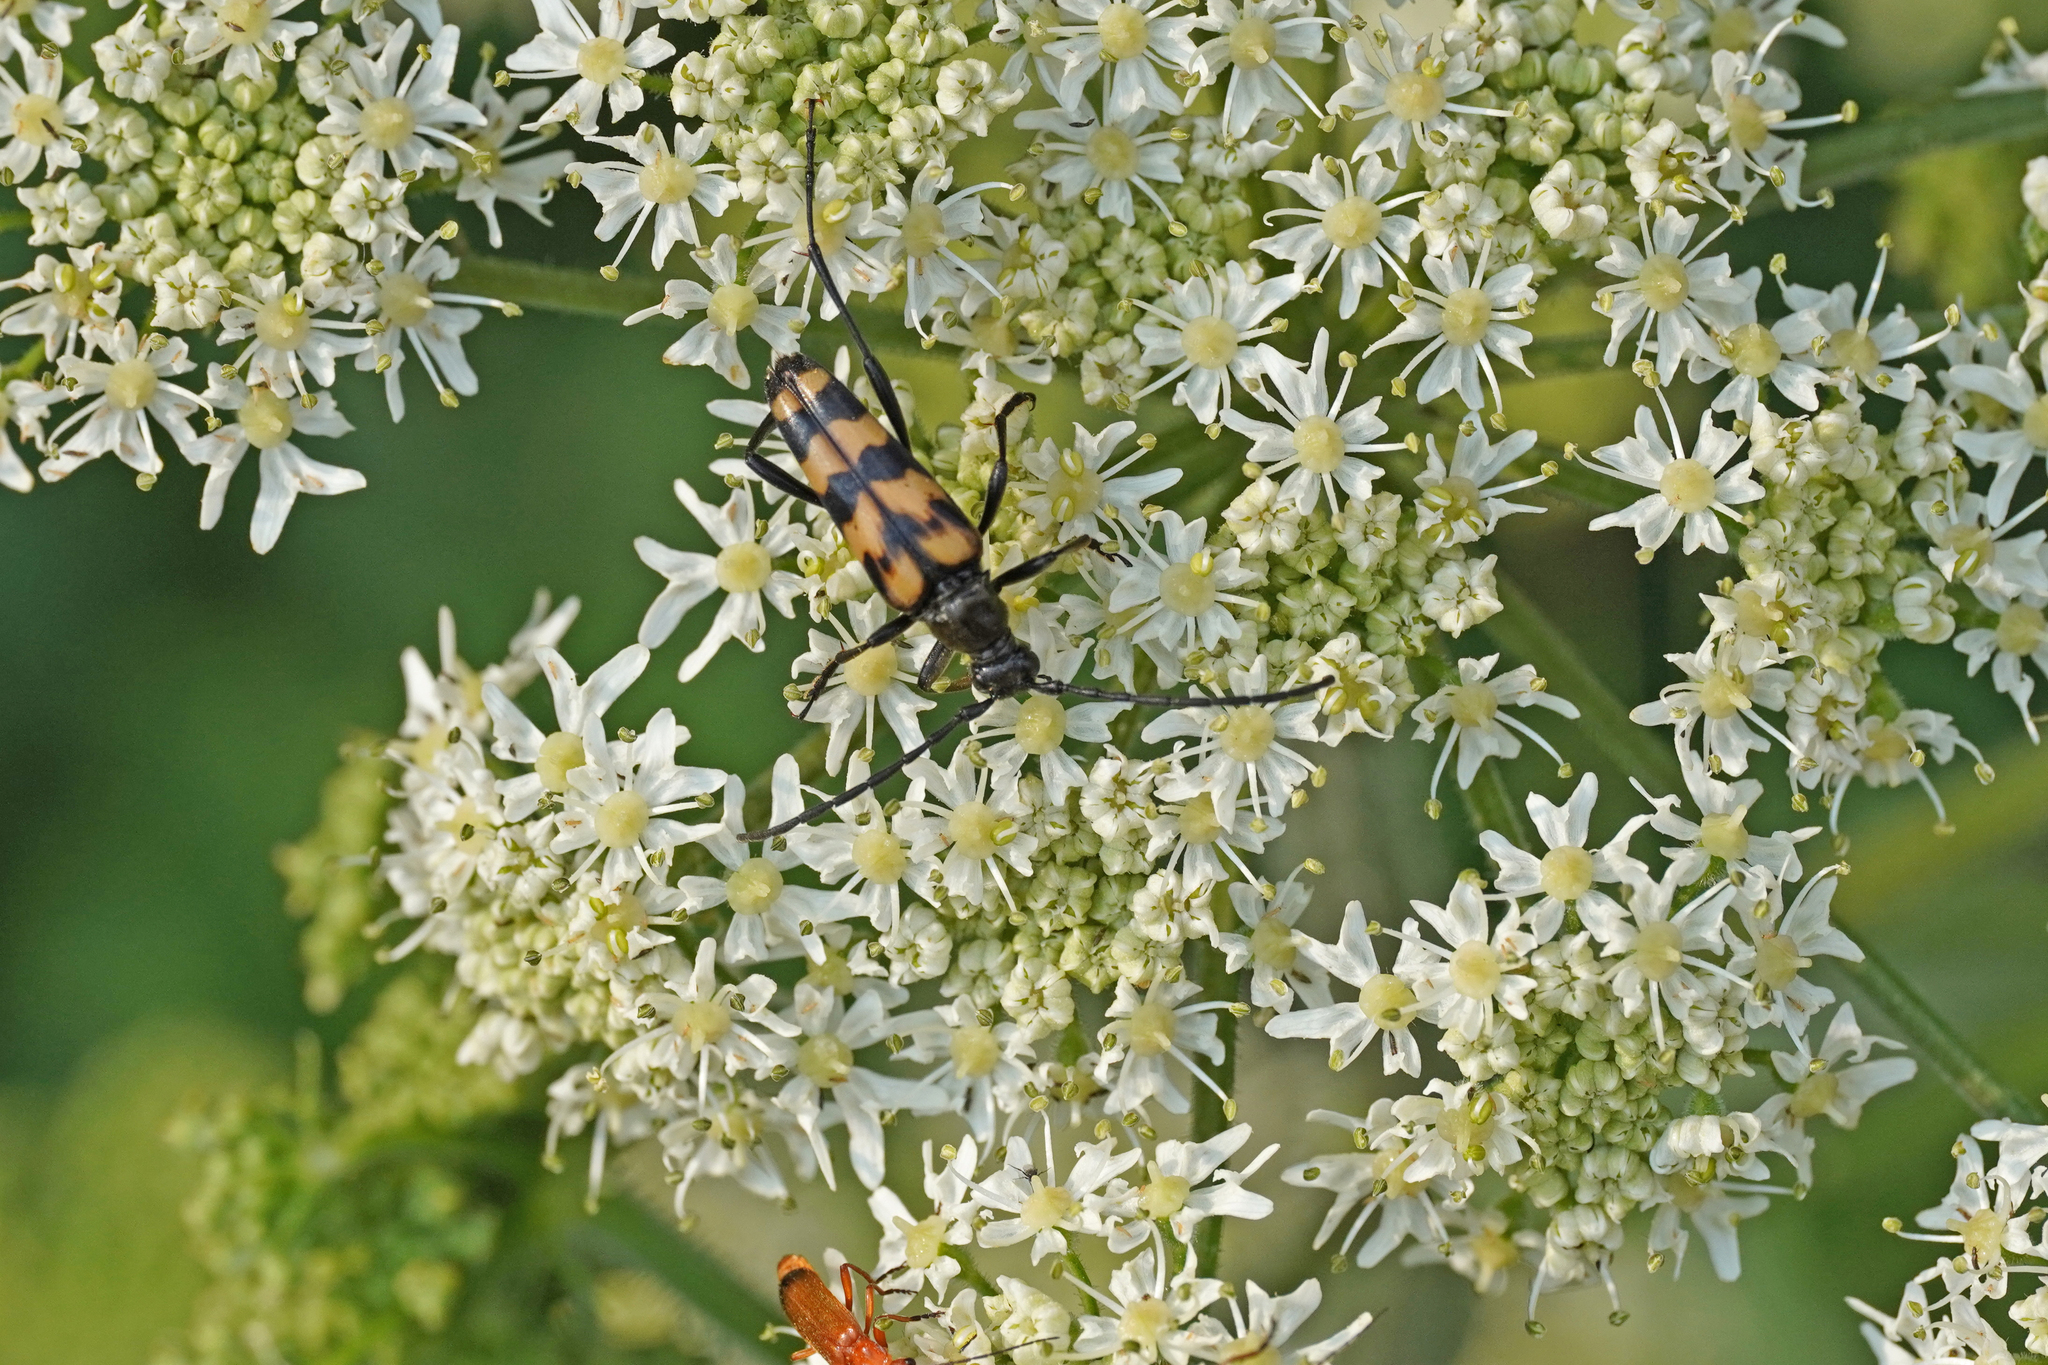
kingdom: Animalia
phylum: Arthropoda
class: Insecta
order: Coleoptera
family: Cerambycidae
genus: Leptura
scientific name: Leptura quadrifasciata
